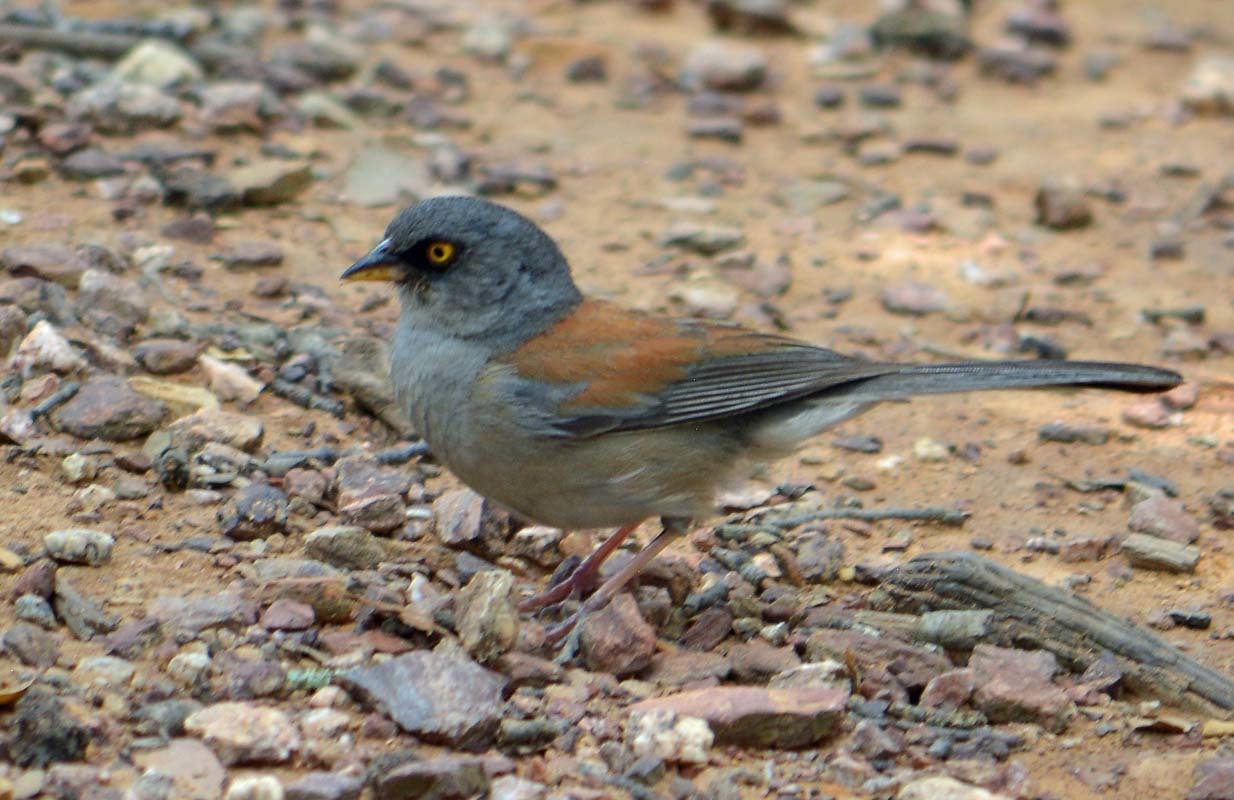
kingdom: Animalia
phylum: Chordata
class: Aves
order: Passeriformes
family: Passerellidae
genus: Junco
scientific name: Junco phaeonotus
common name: Yellow-eyed junco
